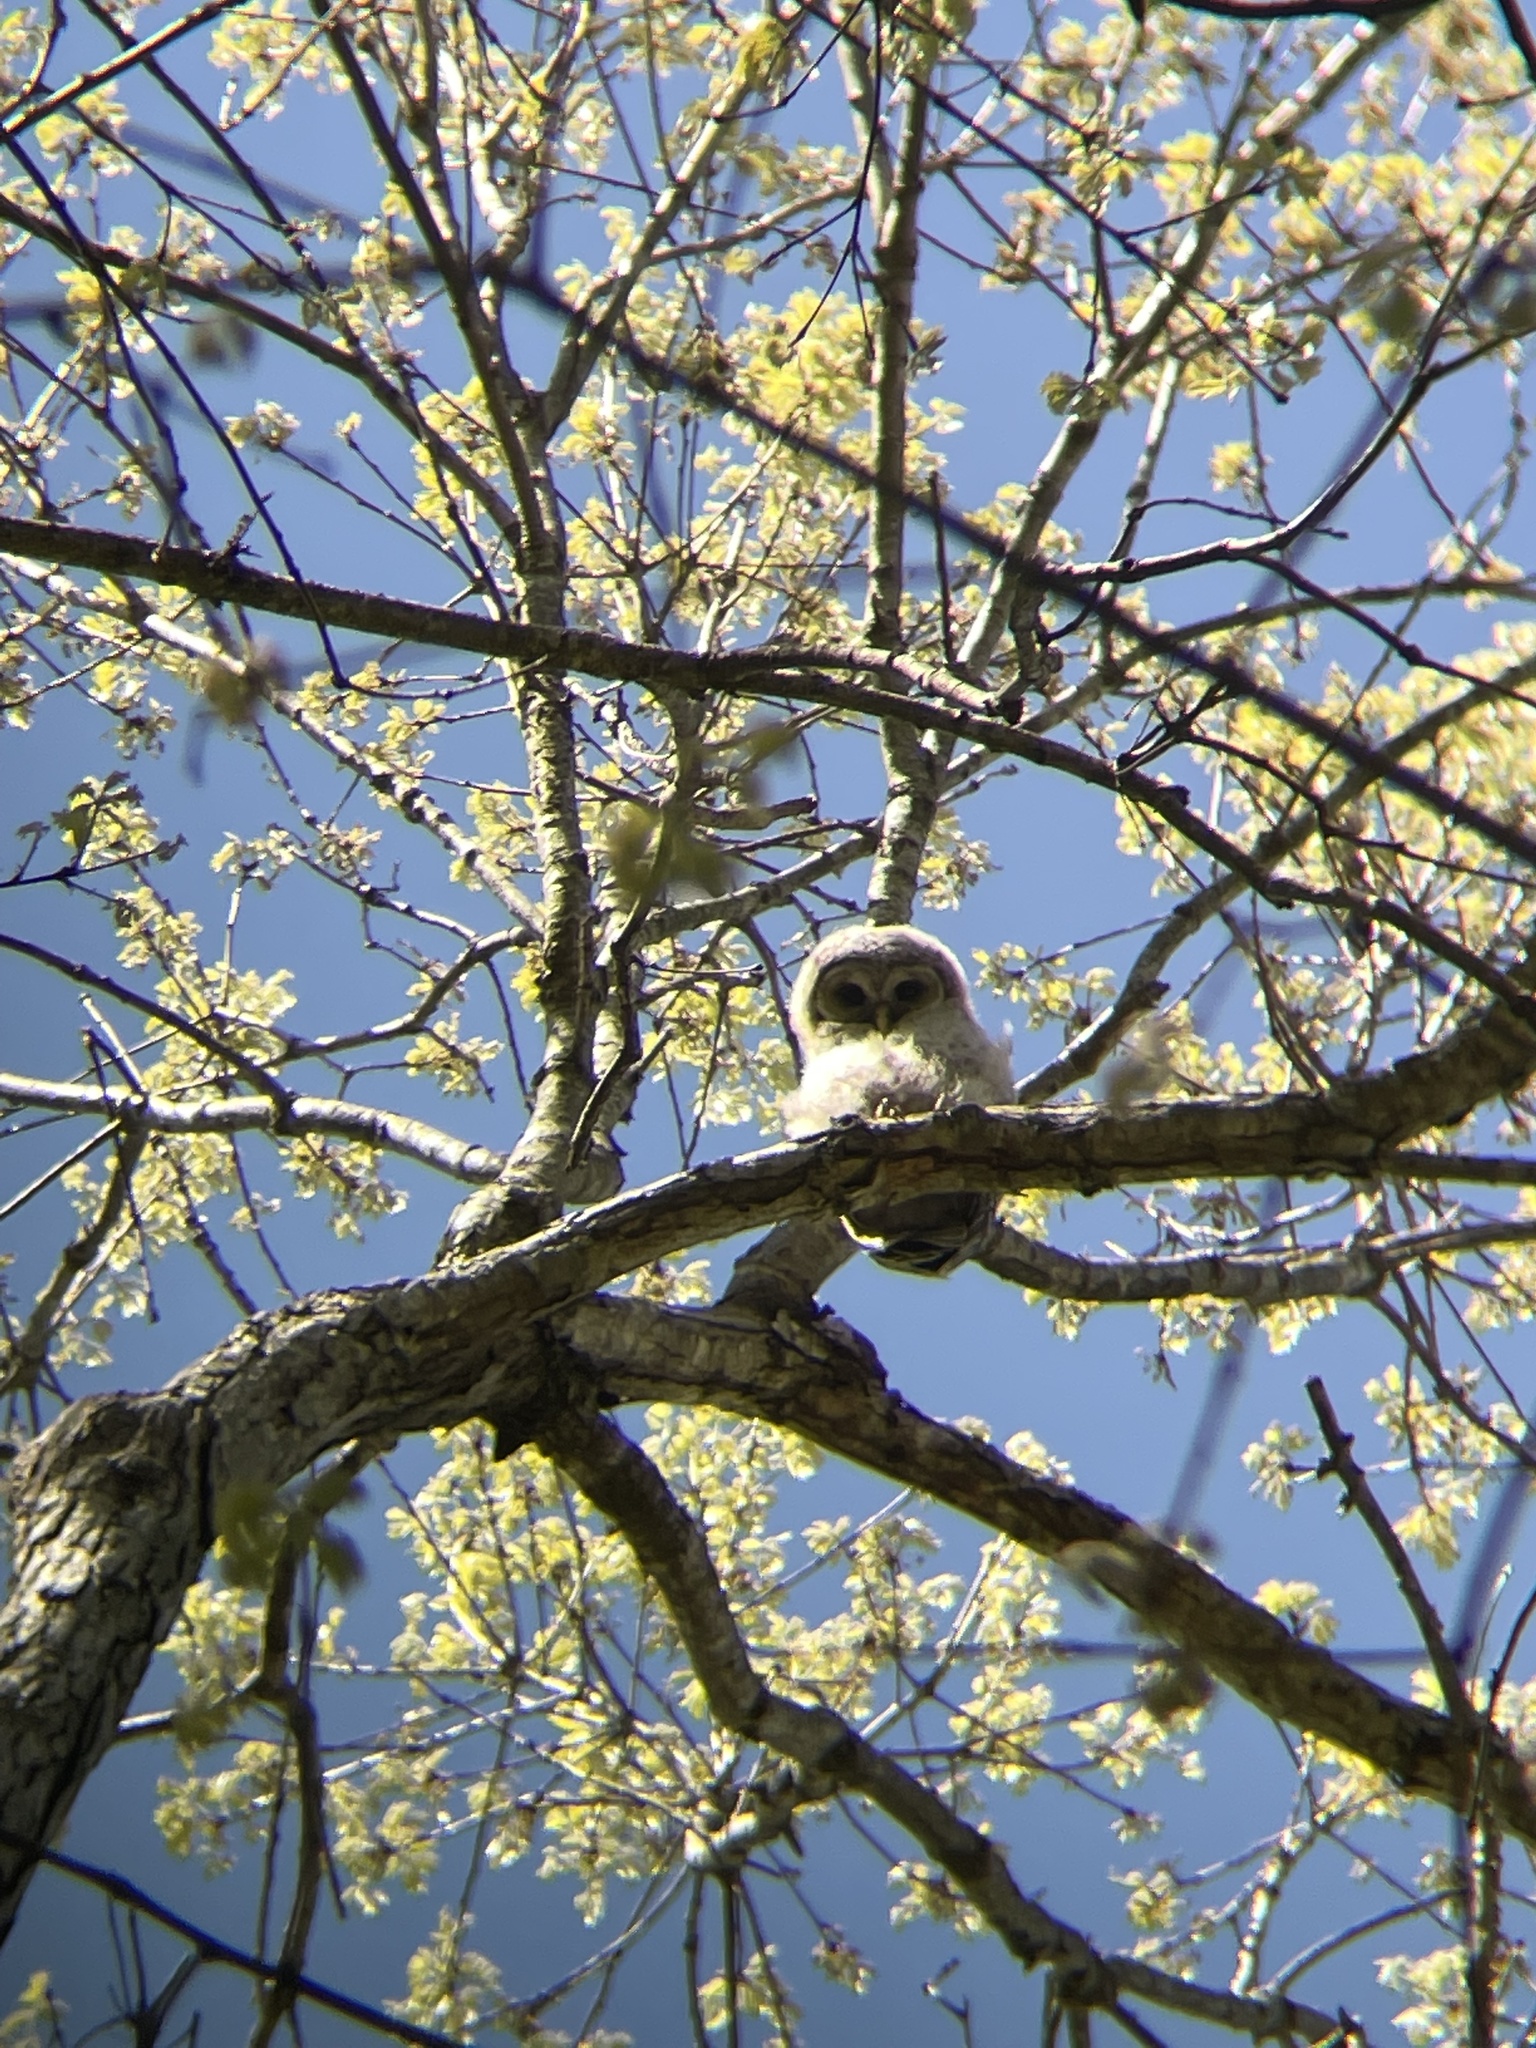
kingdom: Animalia
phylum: Chordata
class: Aves
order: Strigiformes
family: Strigidae
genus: Strix
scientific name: Strix varia
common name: Barred owl
